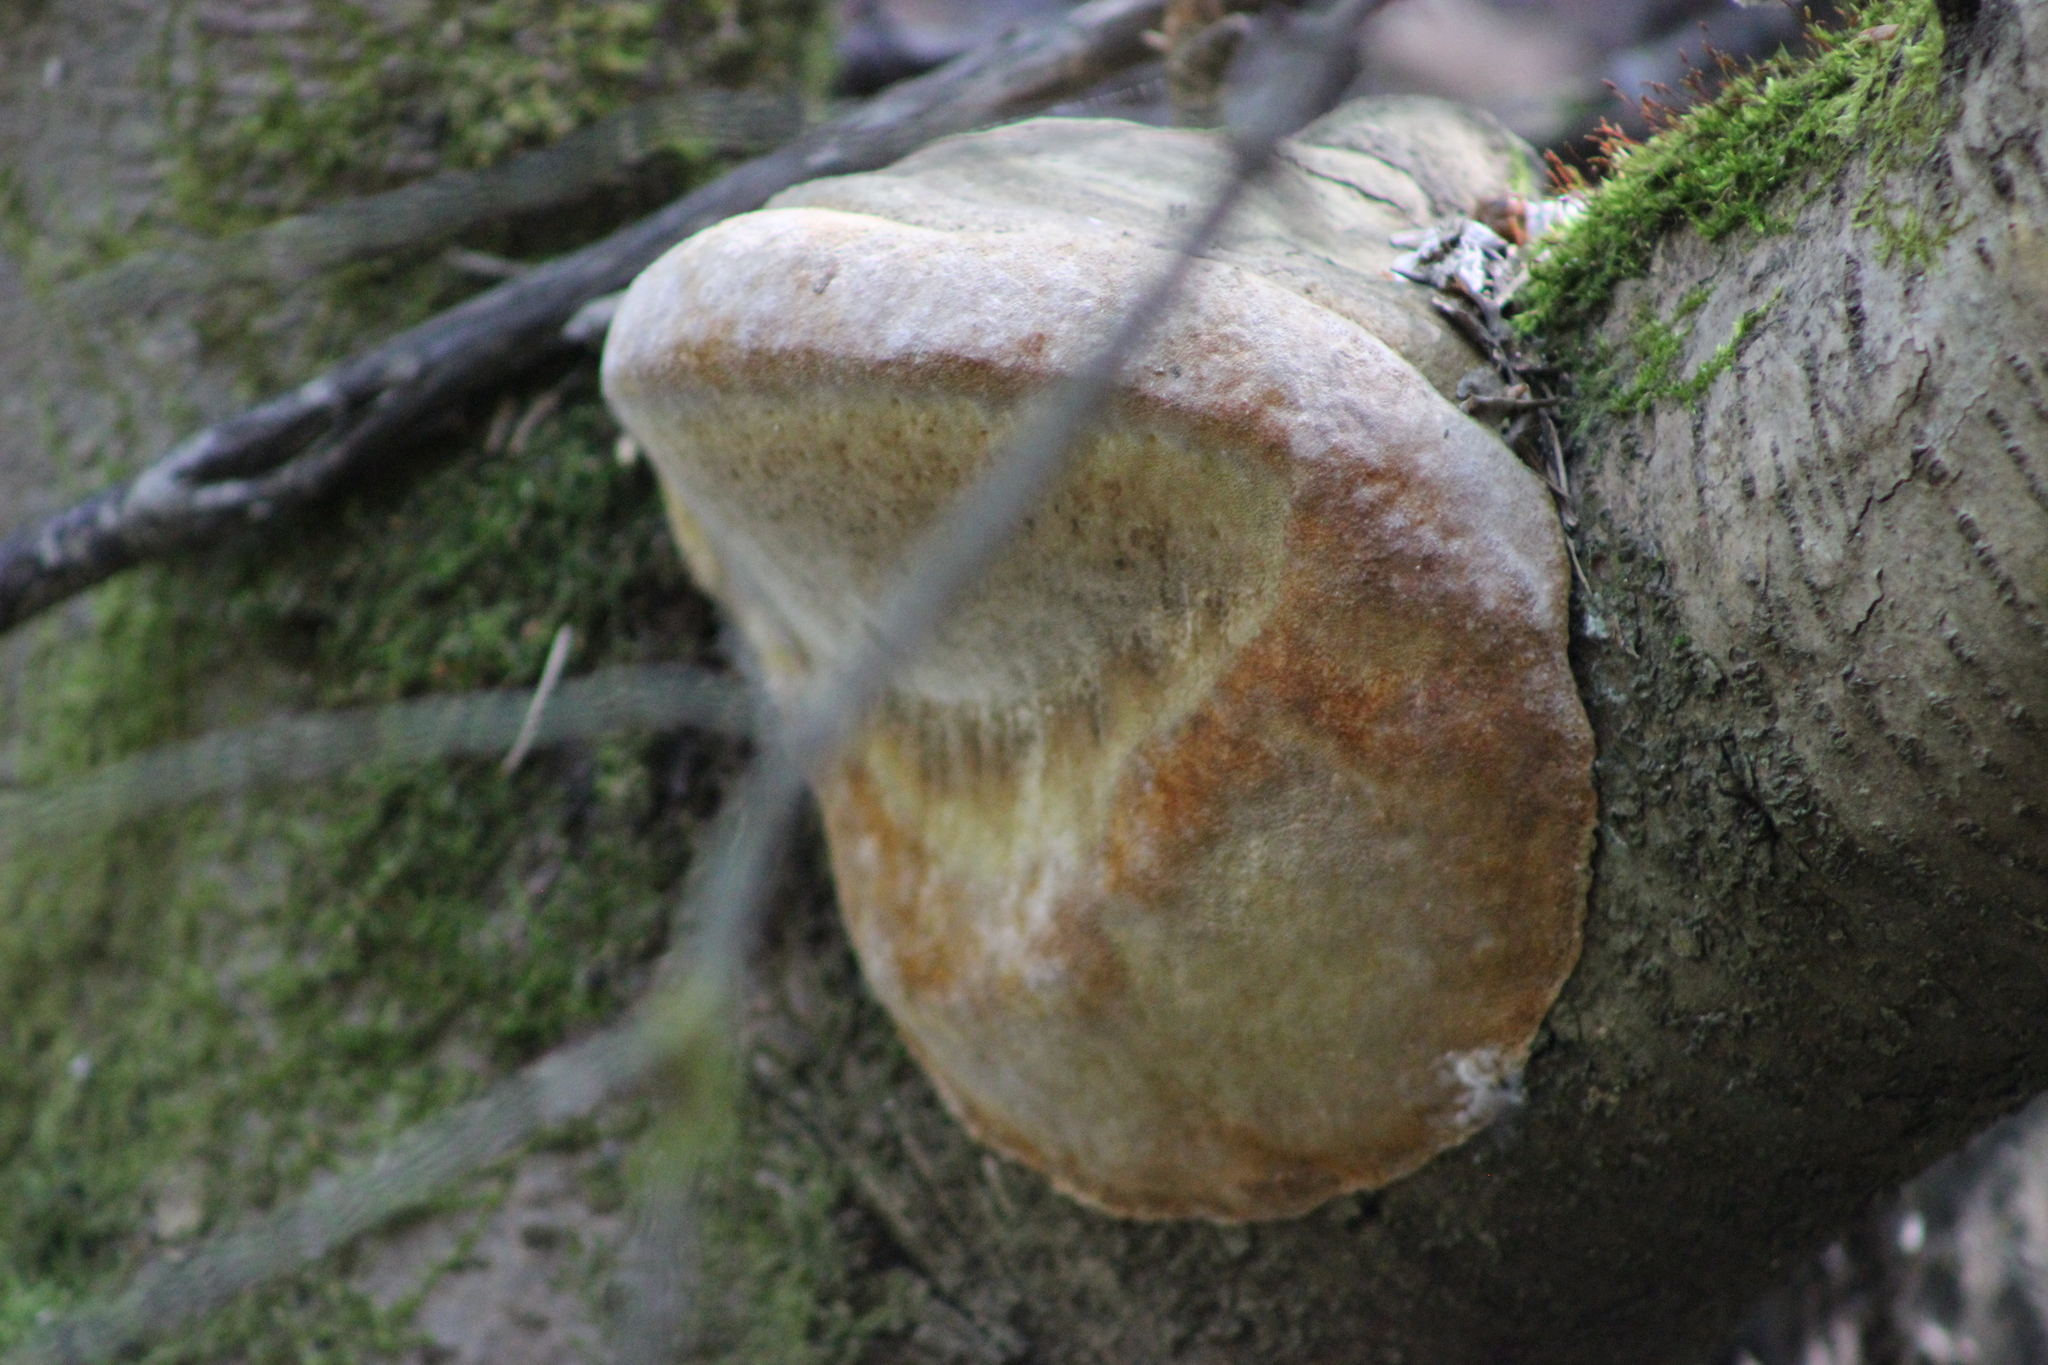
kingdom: Fungi
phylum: Basidiomycota
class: Agaricomycetes
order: Hymenochaetales
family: Hymenochaetaceae
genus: Phellinus
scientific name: Phellinus hartigii
